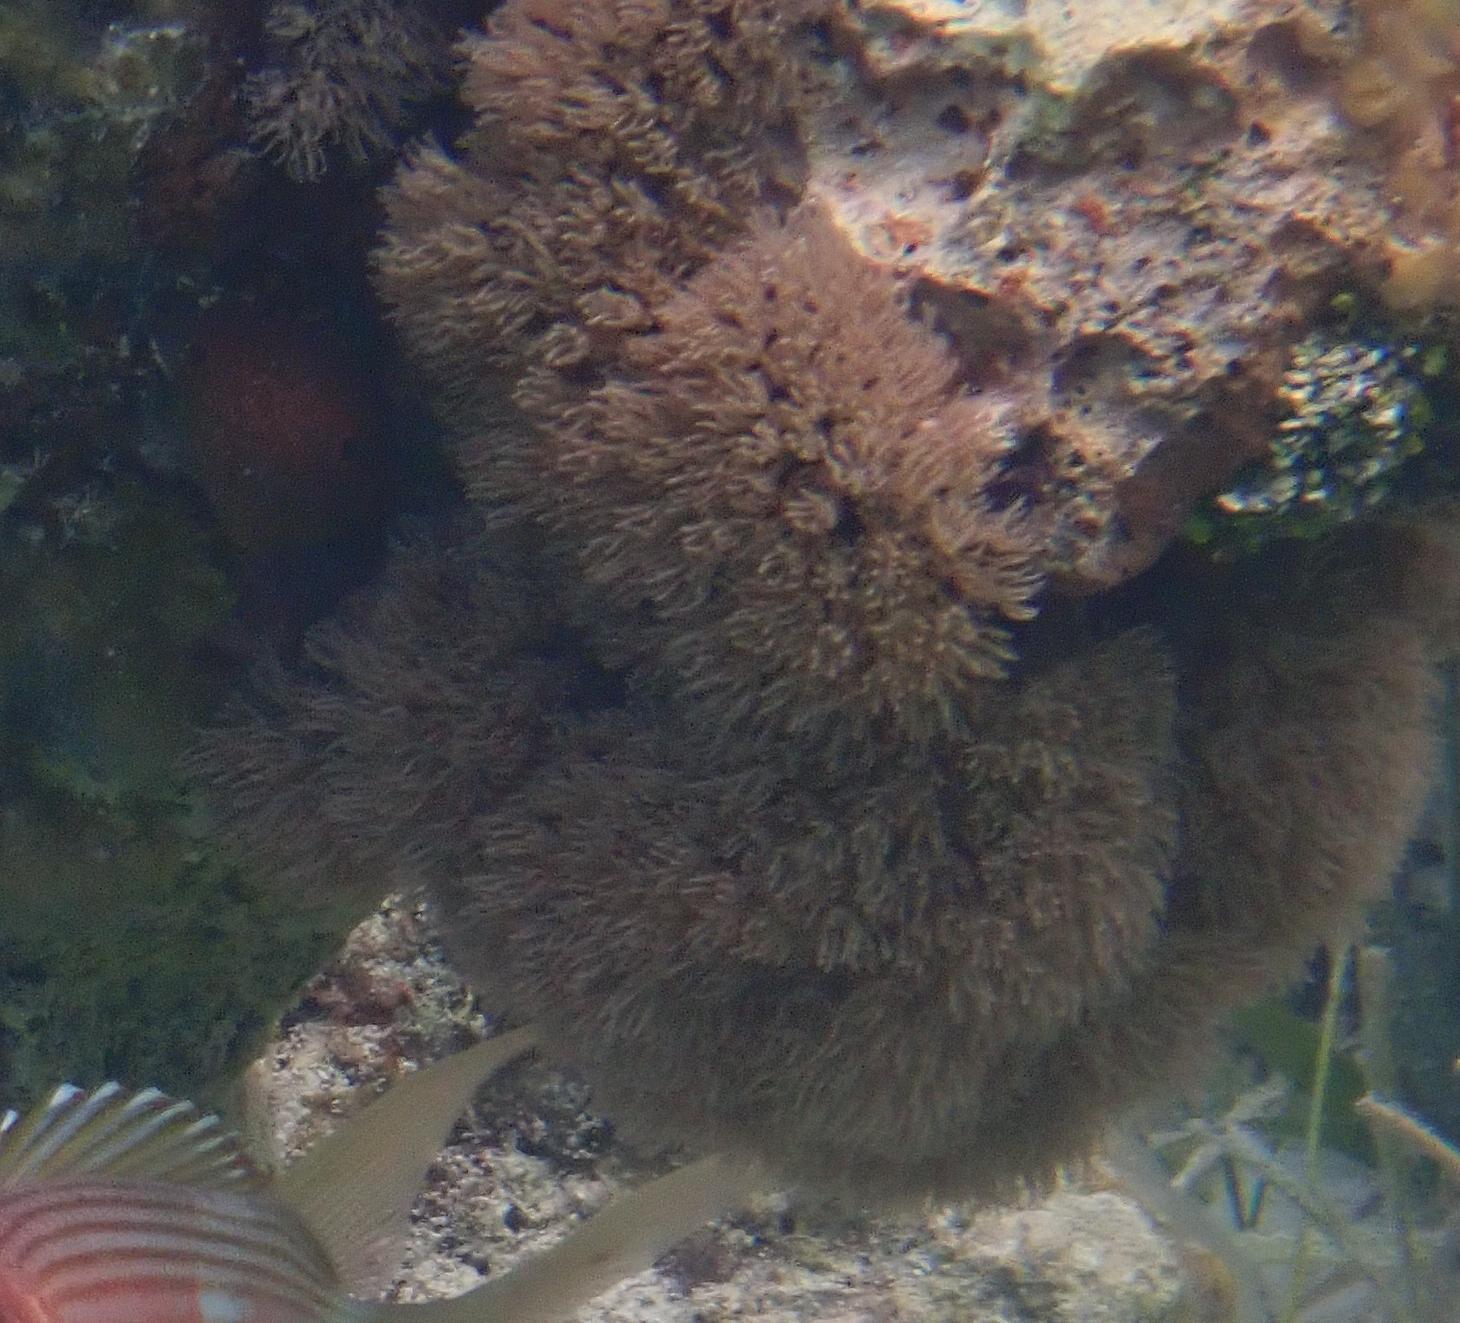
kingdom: Animalia
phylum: Cnidaria
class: Anthozoa
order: Scleralcyonacea
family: Erythropodiidae
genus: Erythropodium
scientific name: Erythropodium caribaeorum
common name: Encrusting gorgonian
